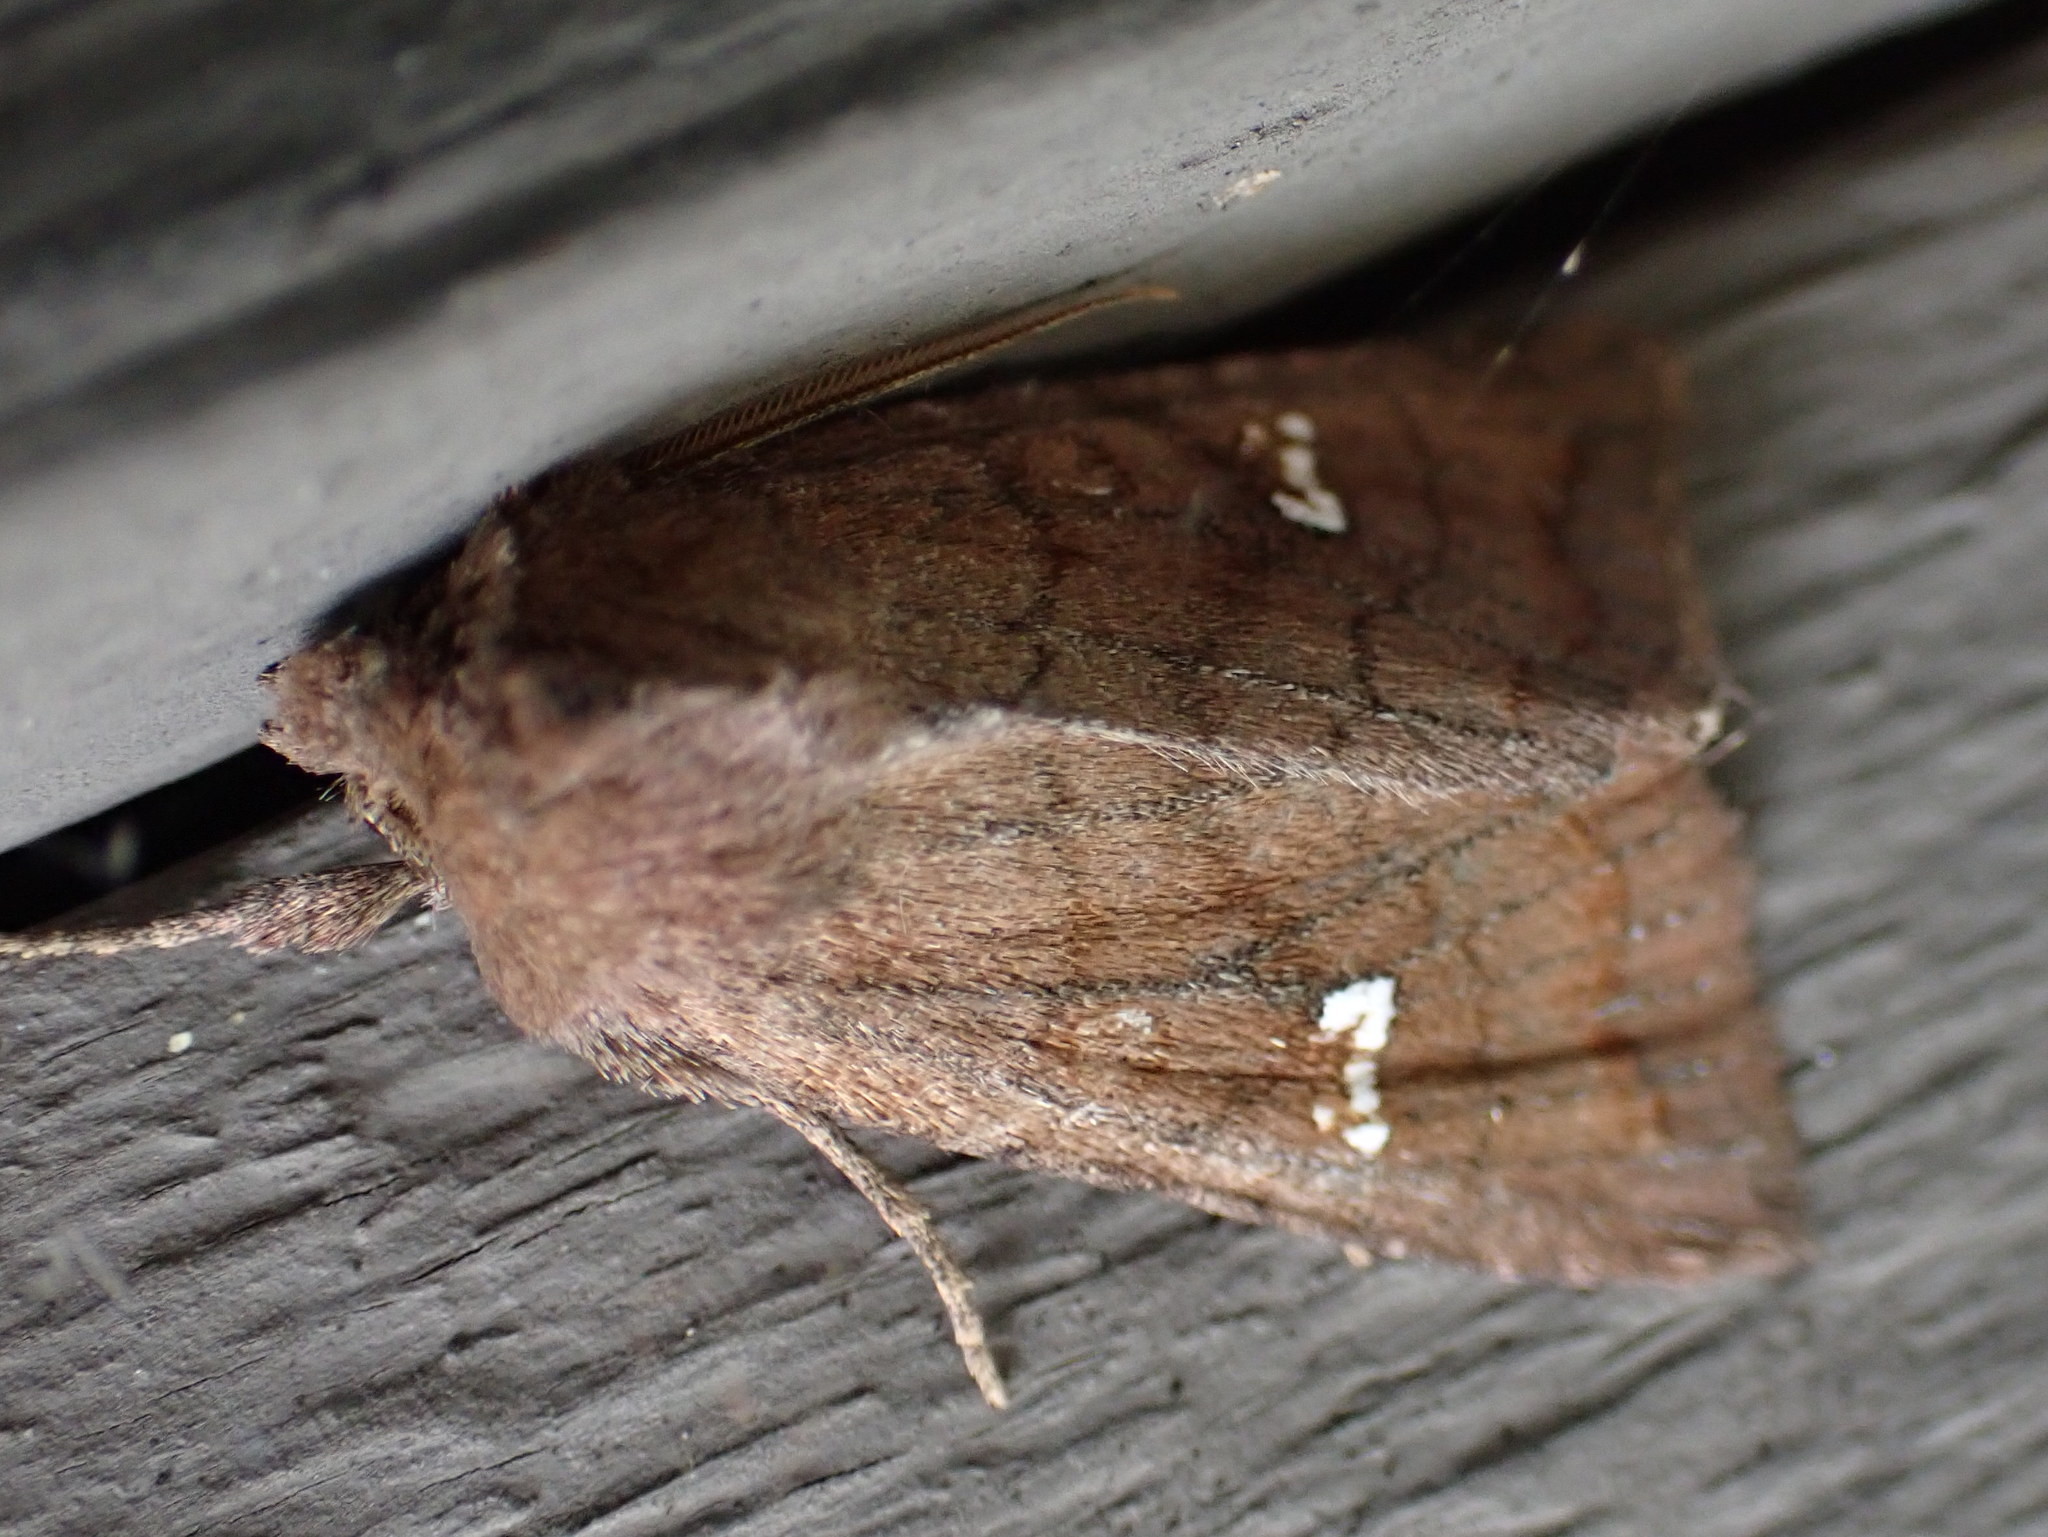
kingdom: Animalia
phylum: Arthropoda
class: Insecta
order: Lepidoptera
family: Noctuidae
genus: Tricholita
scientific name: Tricholita signata
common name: Signate quaker
